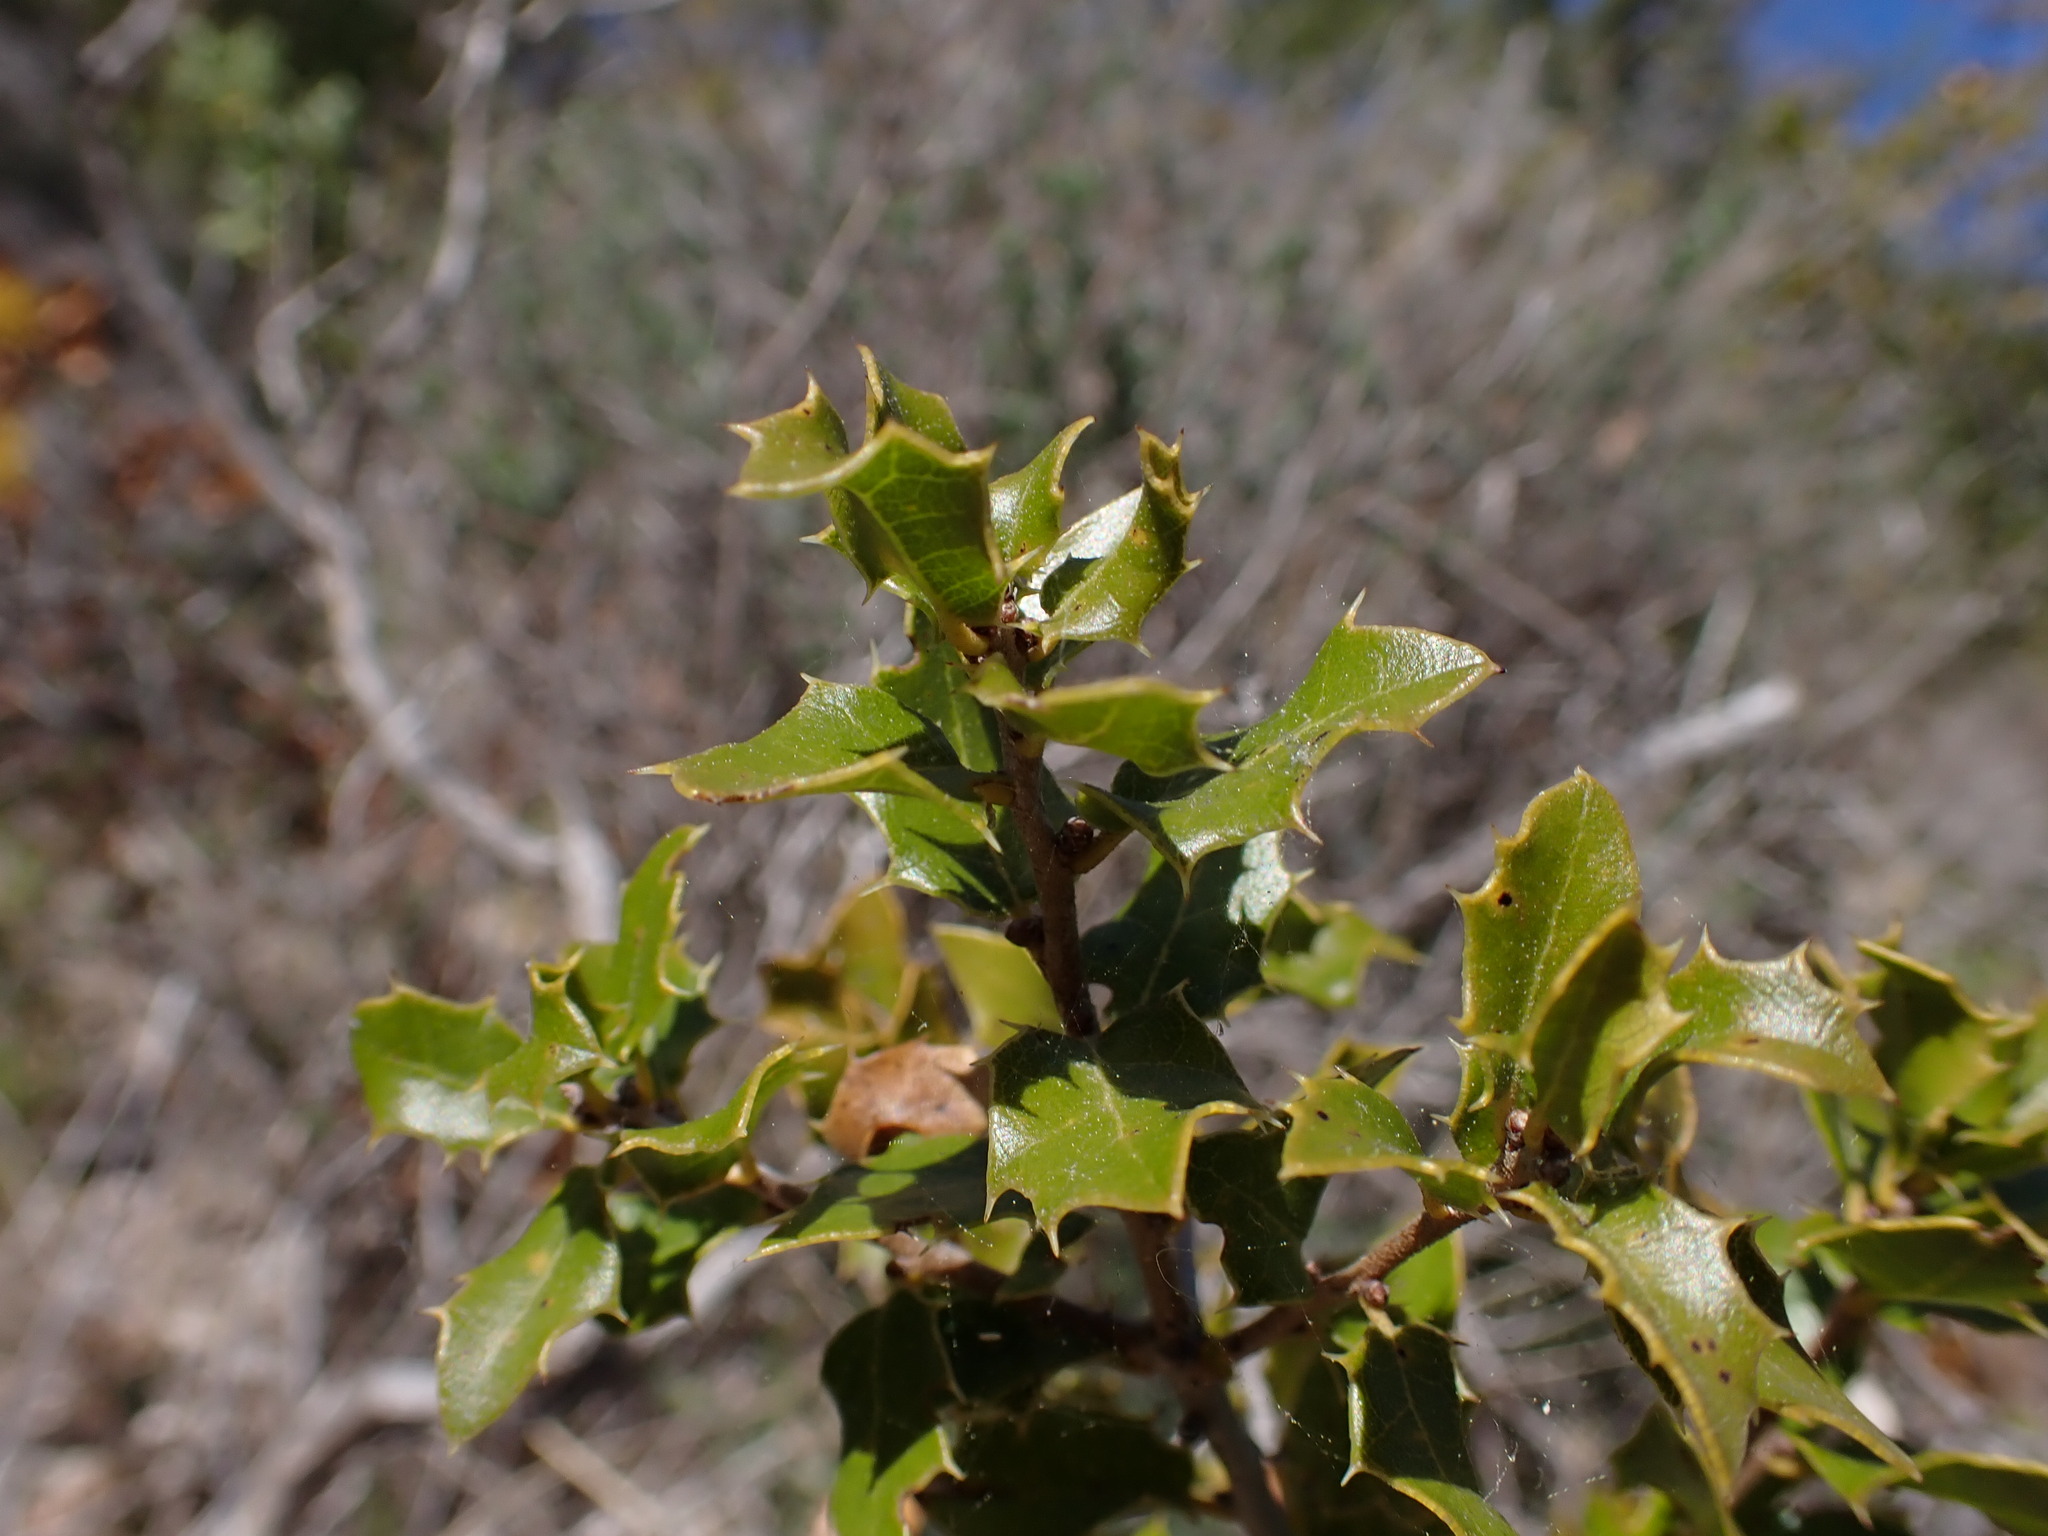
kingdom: Plantae
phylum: Tracheophyta
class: Magnoliopsida
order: Fagales
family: Fagaceae
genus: Quercus
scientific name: Quercus coccifera
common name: Kermes oak
